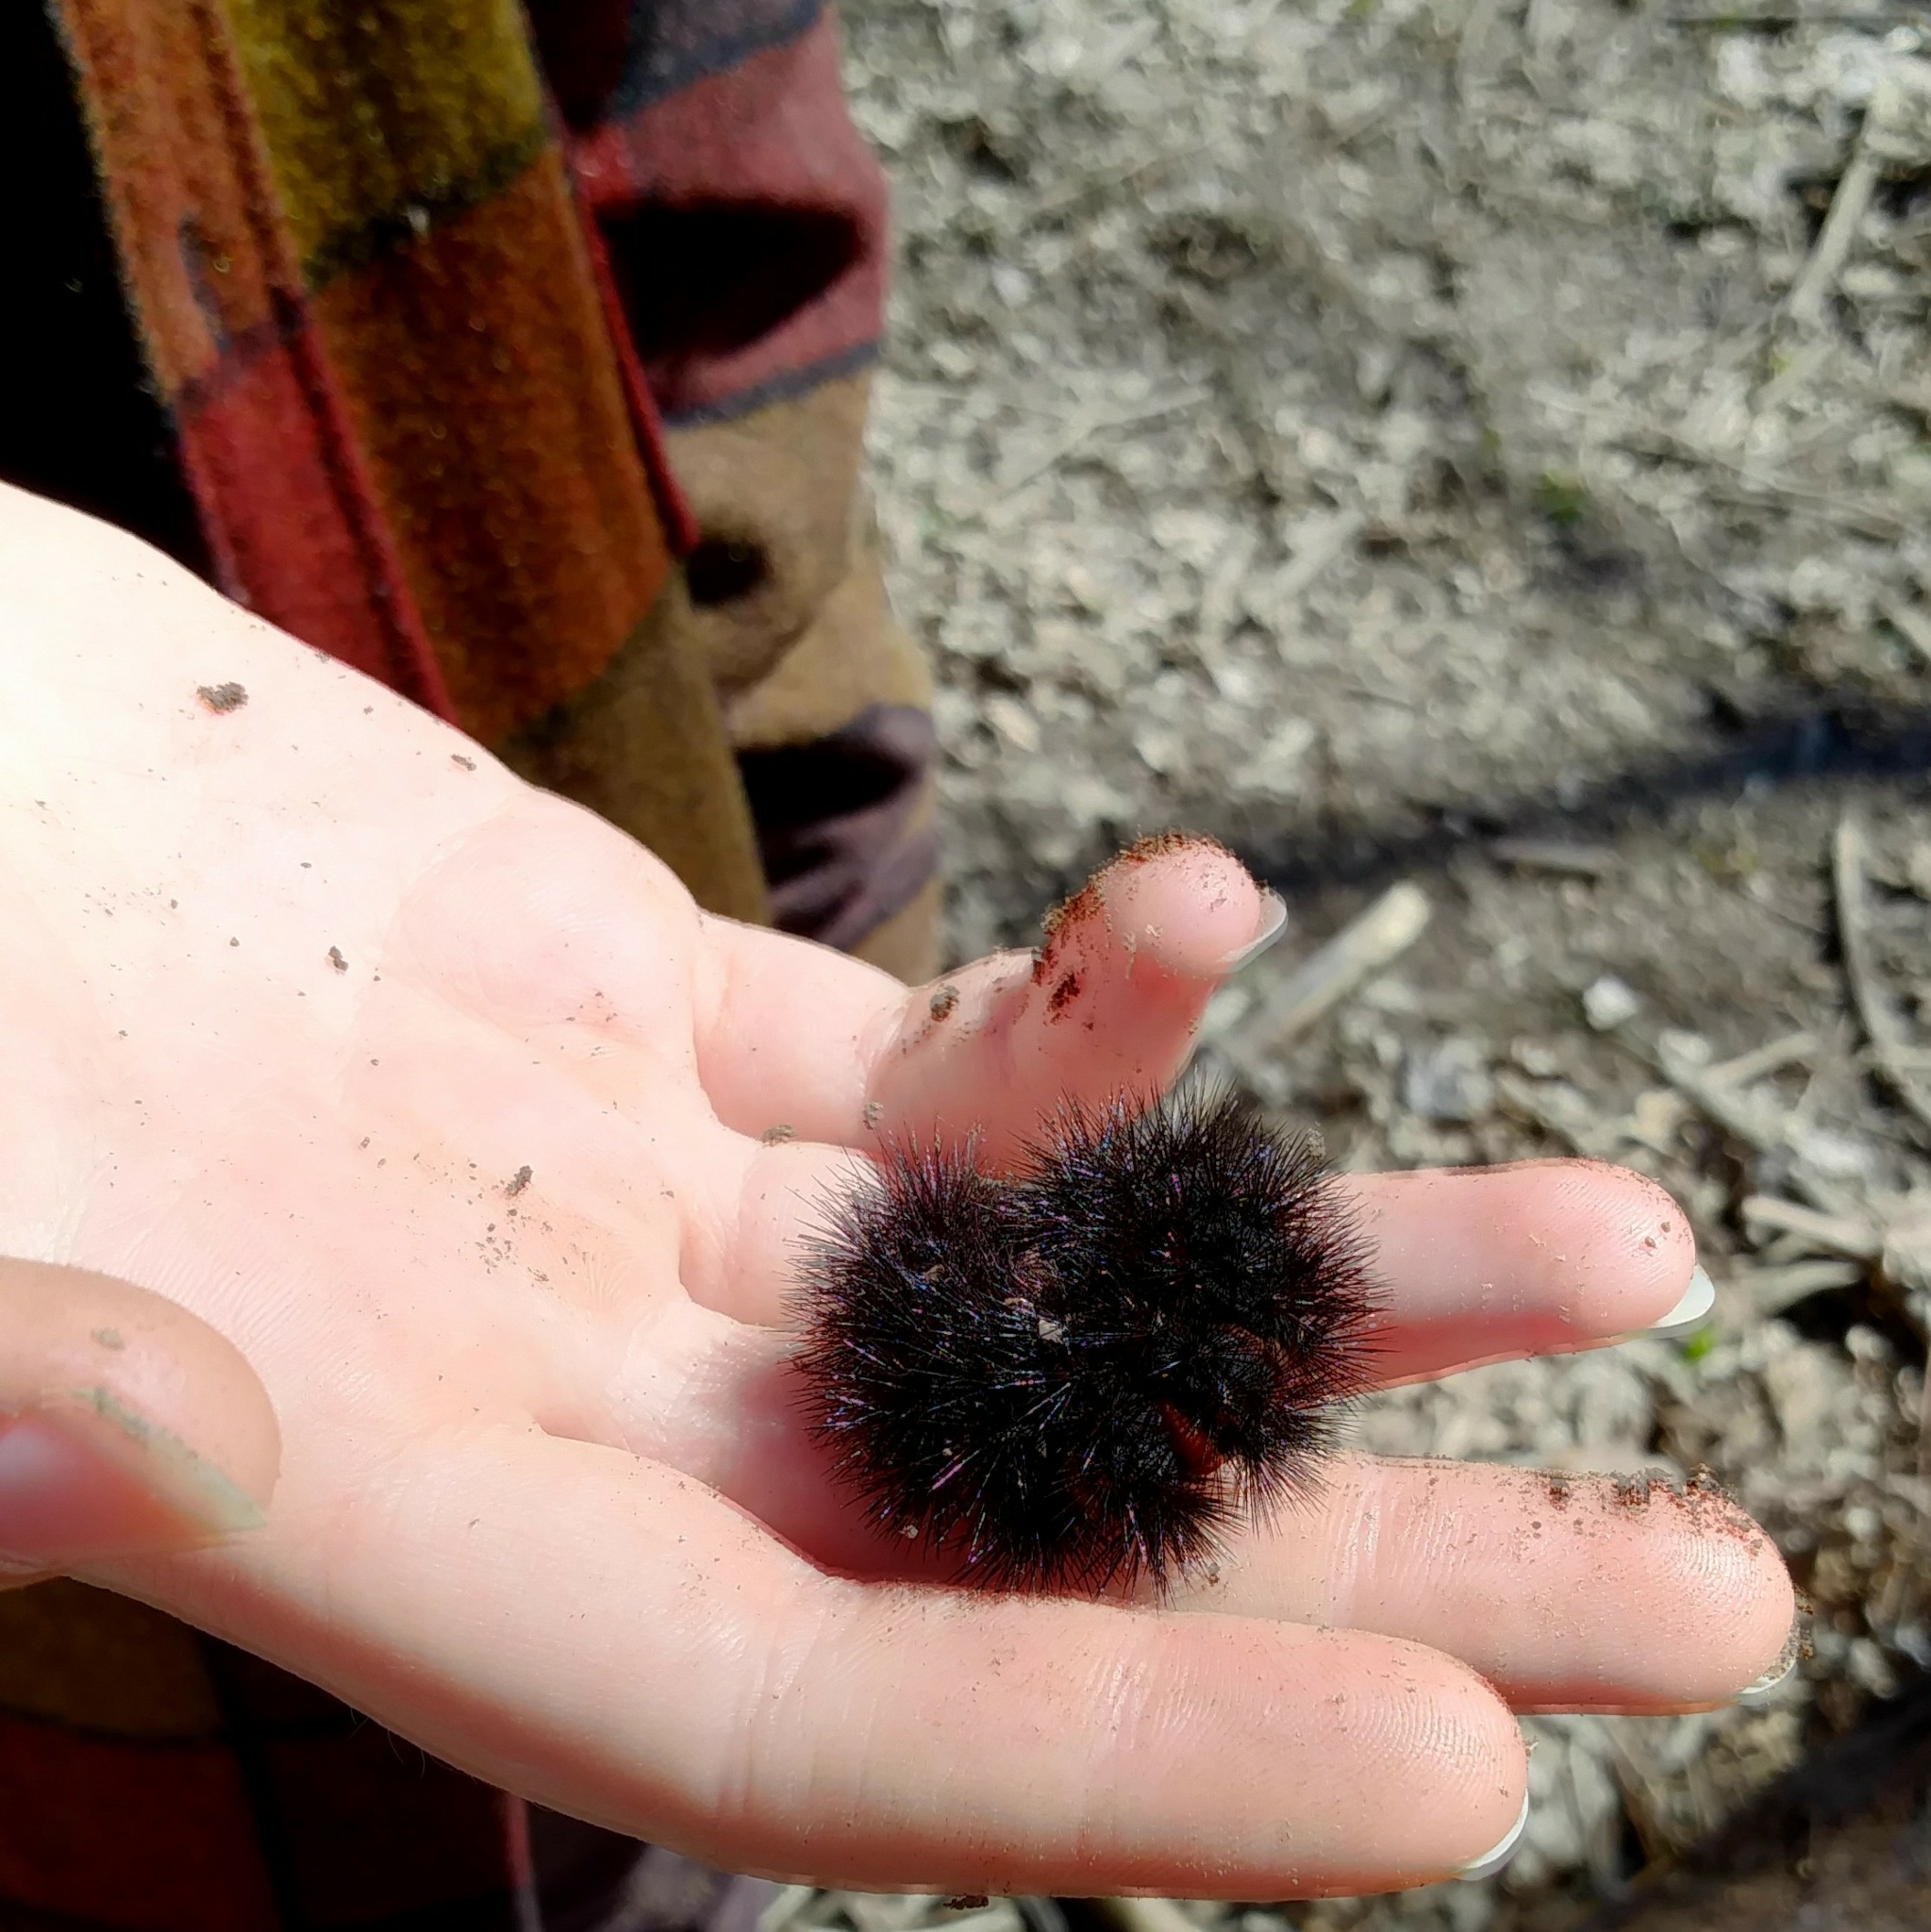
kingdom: Animalia
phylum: Arthropoda
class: Insecta
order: Lepidoptera
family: Erebidae
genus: Hypercompe
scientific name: Hypercompe scribonia
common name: Giant leopard moth
